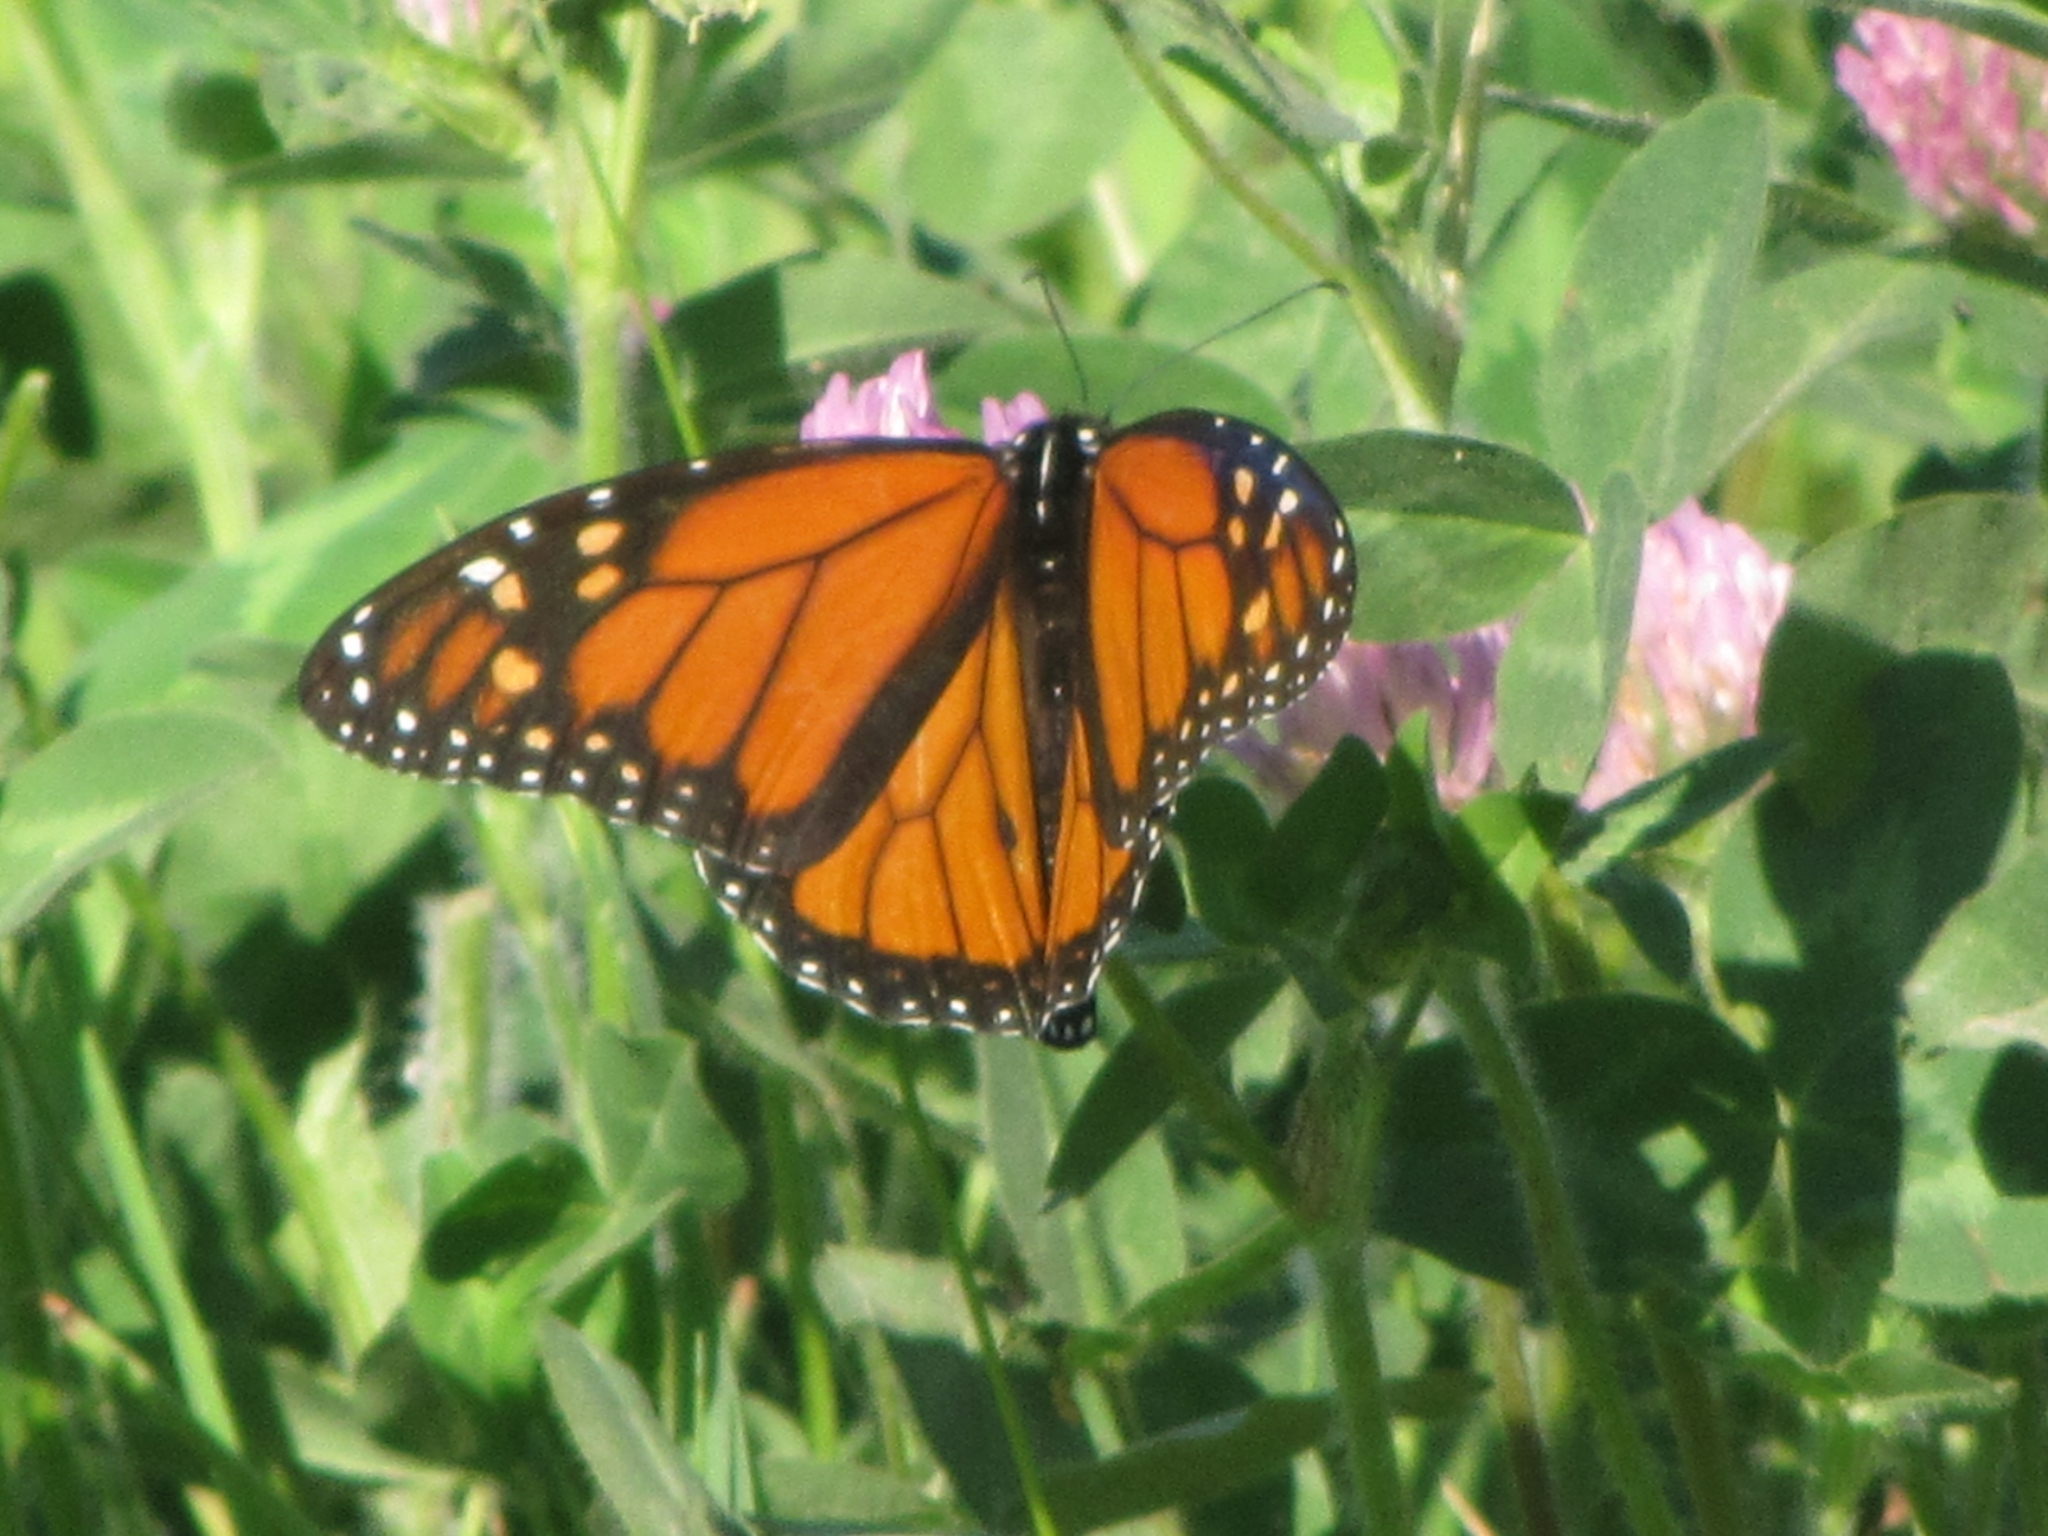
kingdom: Animalia
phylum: Arthropoda
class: Insecta
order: Lepidoptera
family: Nymphalidae
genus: Danaus
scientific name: Danaus plexippus
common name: Monarch
